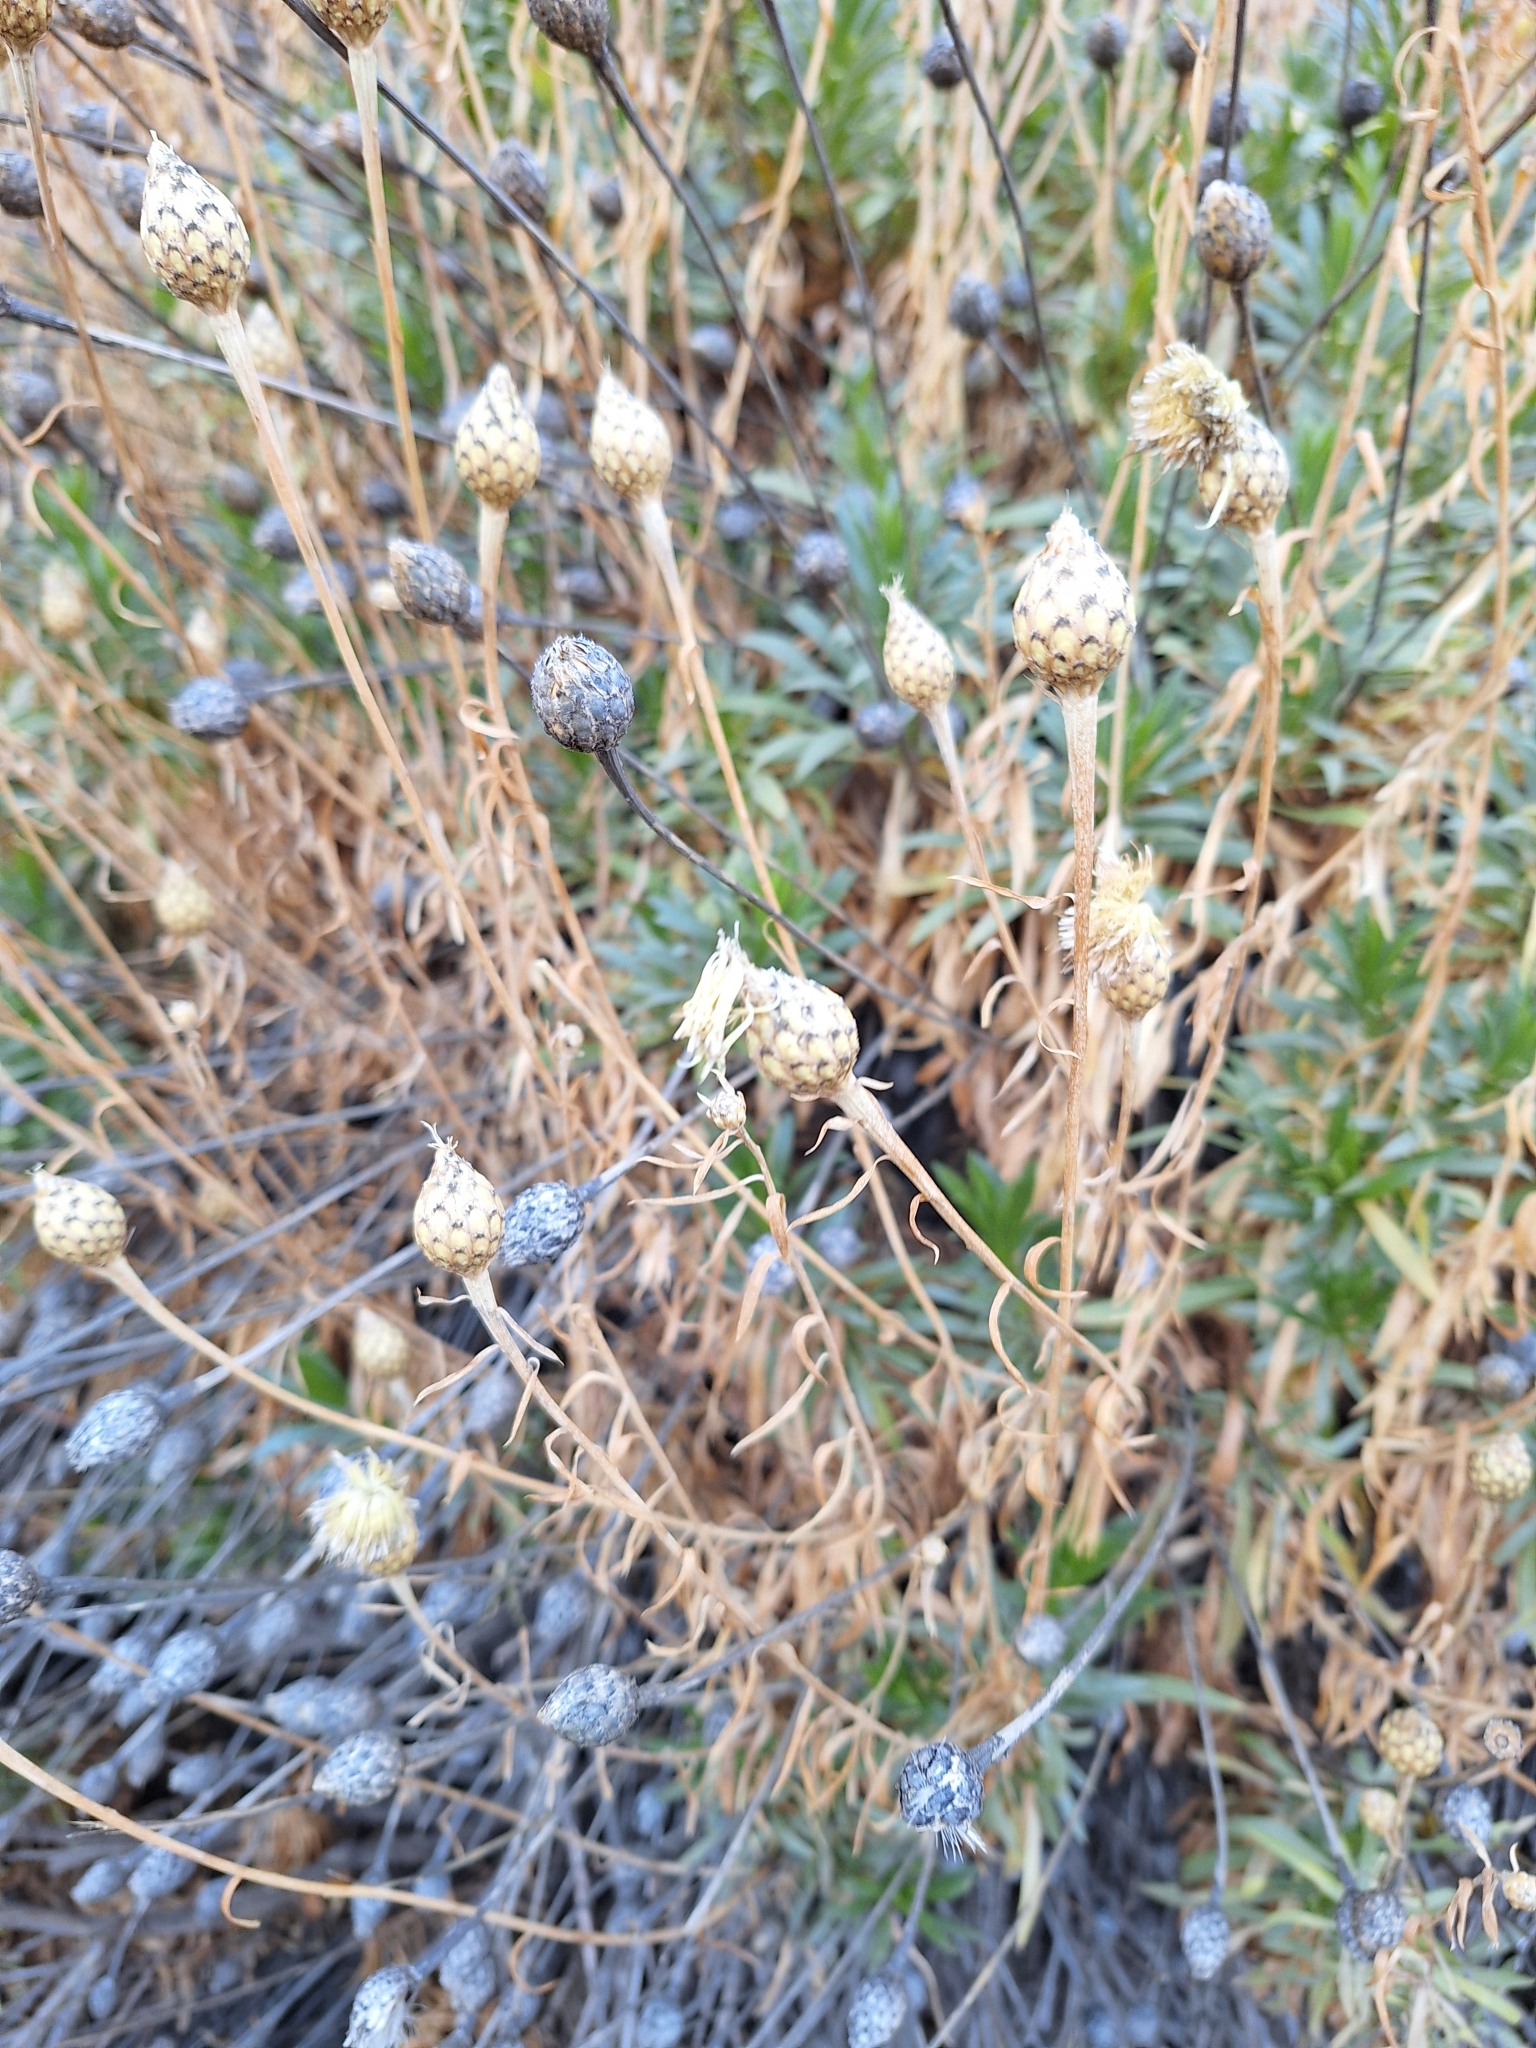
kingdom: Plantae
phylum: Tracheophyta
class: Magnoliopsida
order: Asterales
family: Asteraceae
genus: Cheirolophus
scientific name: Cheirolophus teydis
